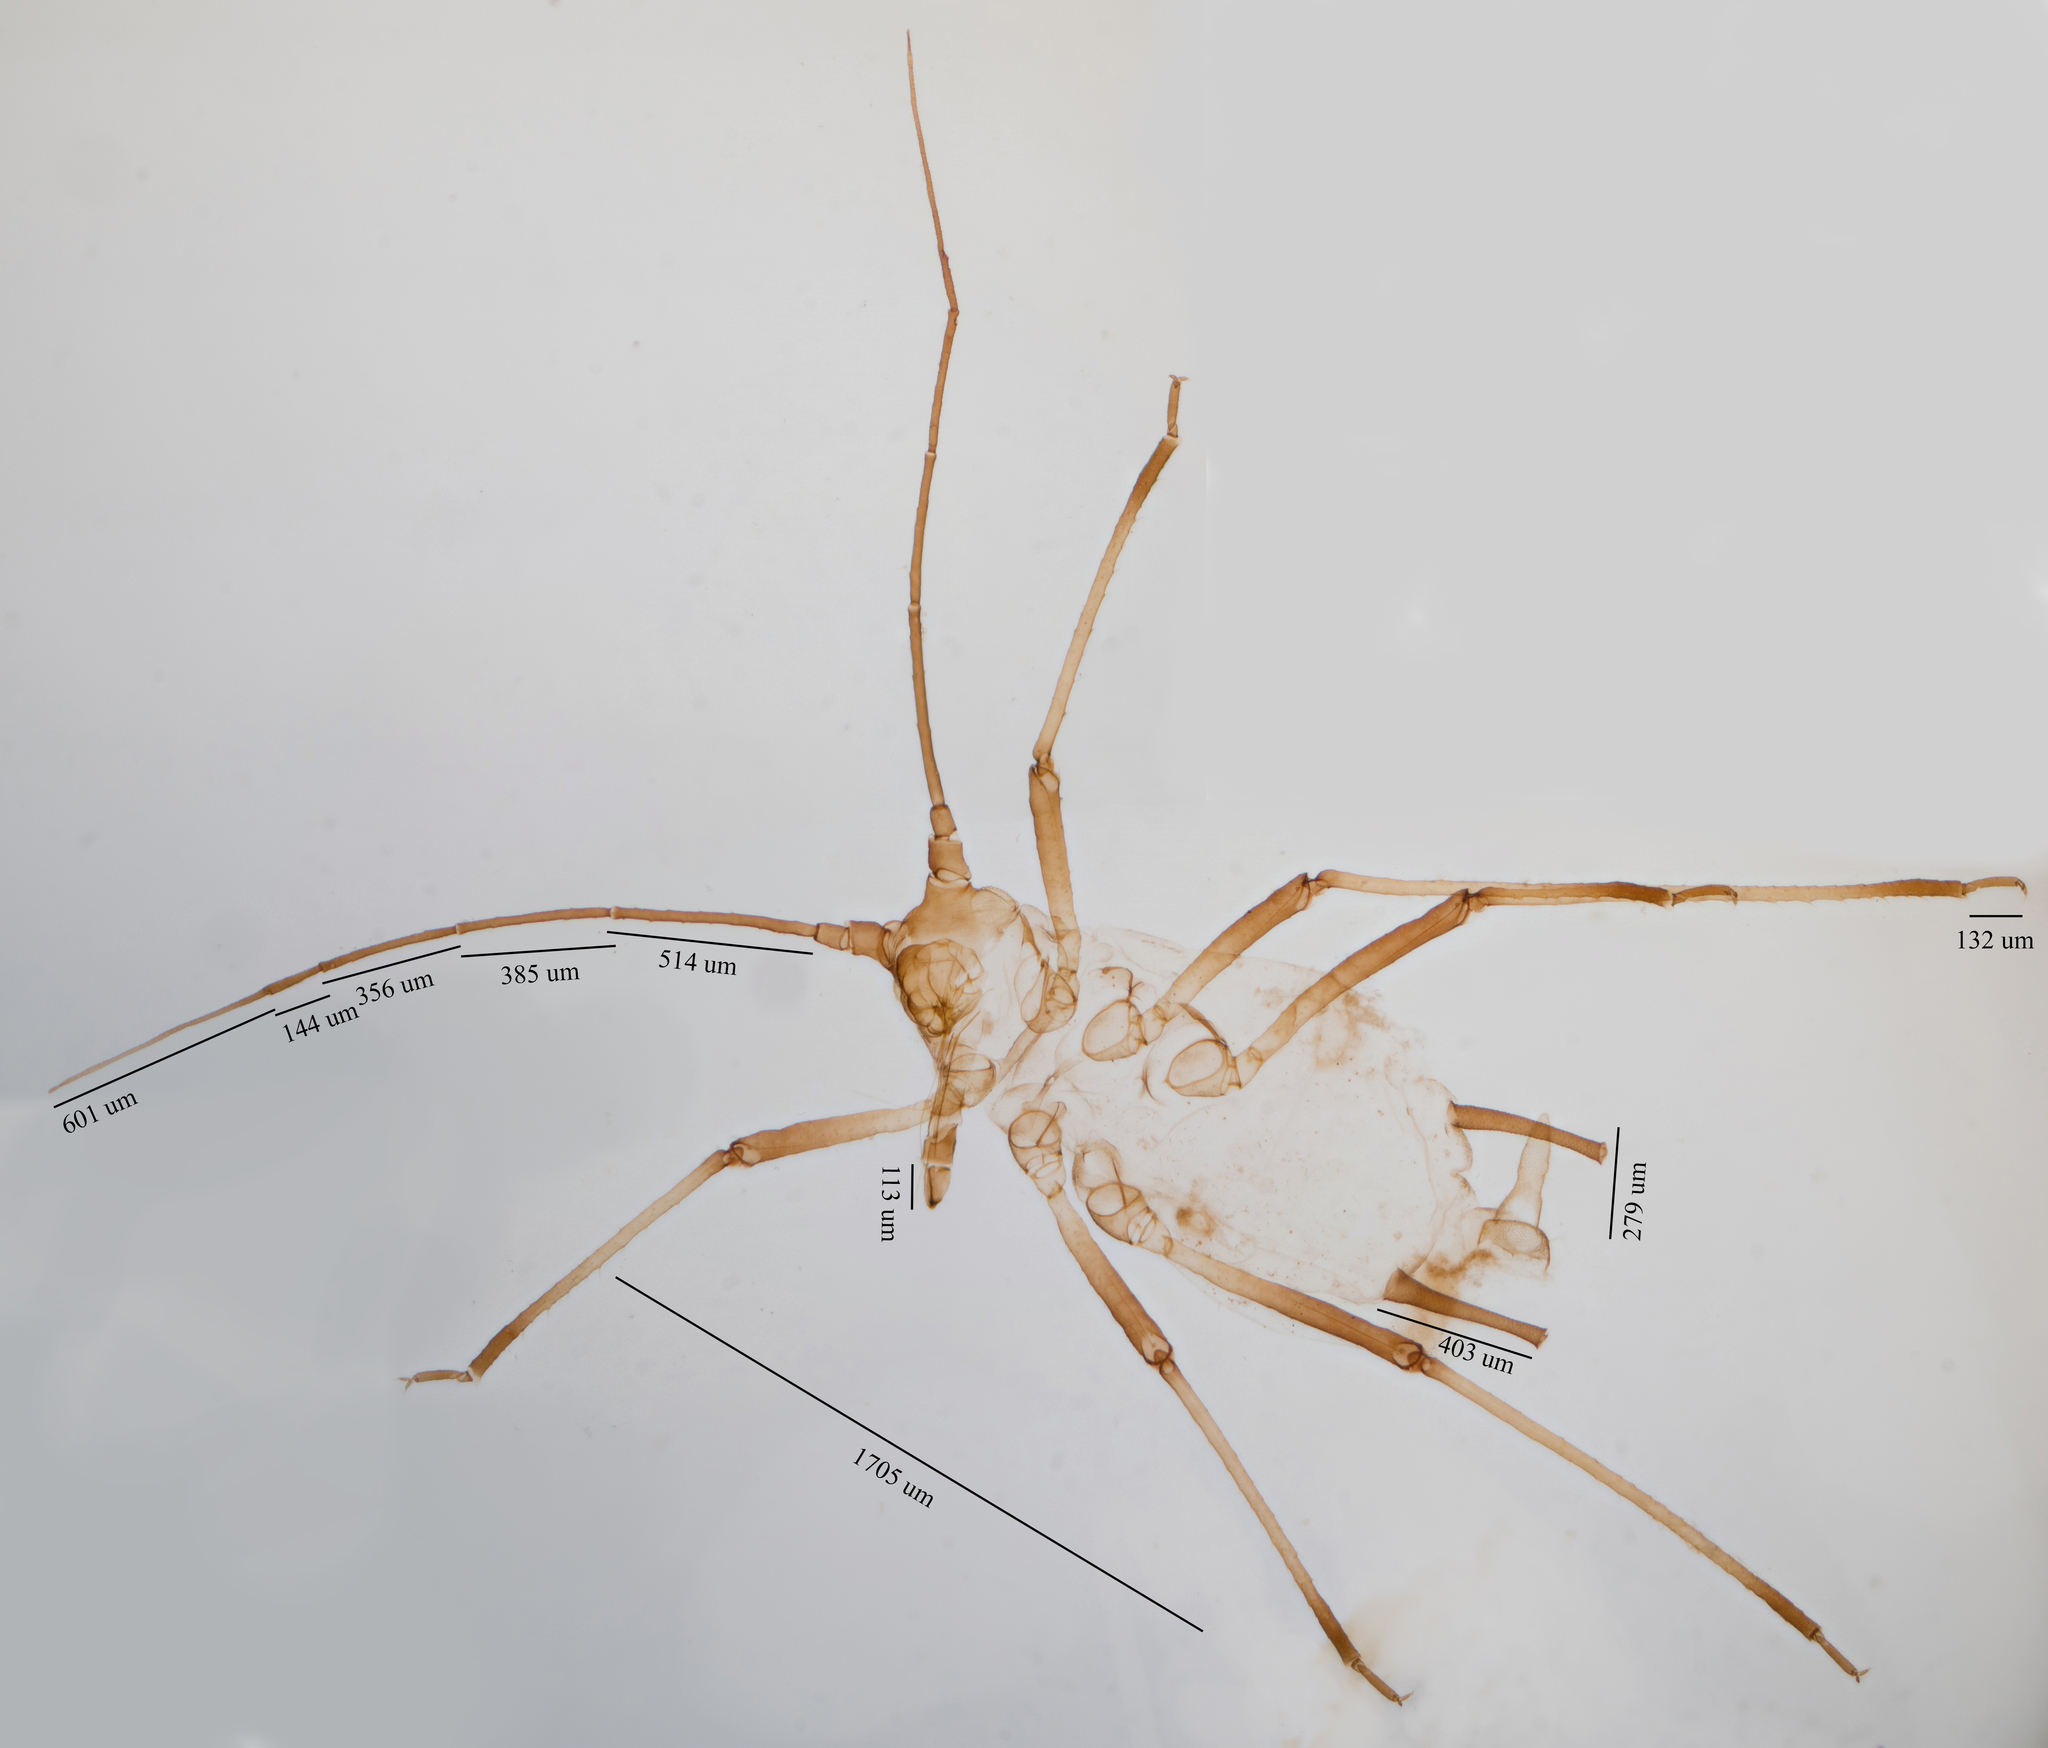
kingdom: Animalia
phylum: Arthropoda
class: Insecta
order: Hemiptera
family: Aphididae
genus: Sitobion
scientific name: Sitobion avenae
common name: English grain aphid
